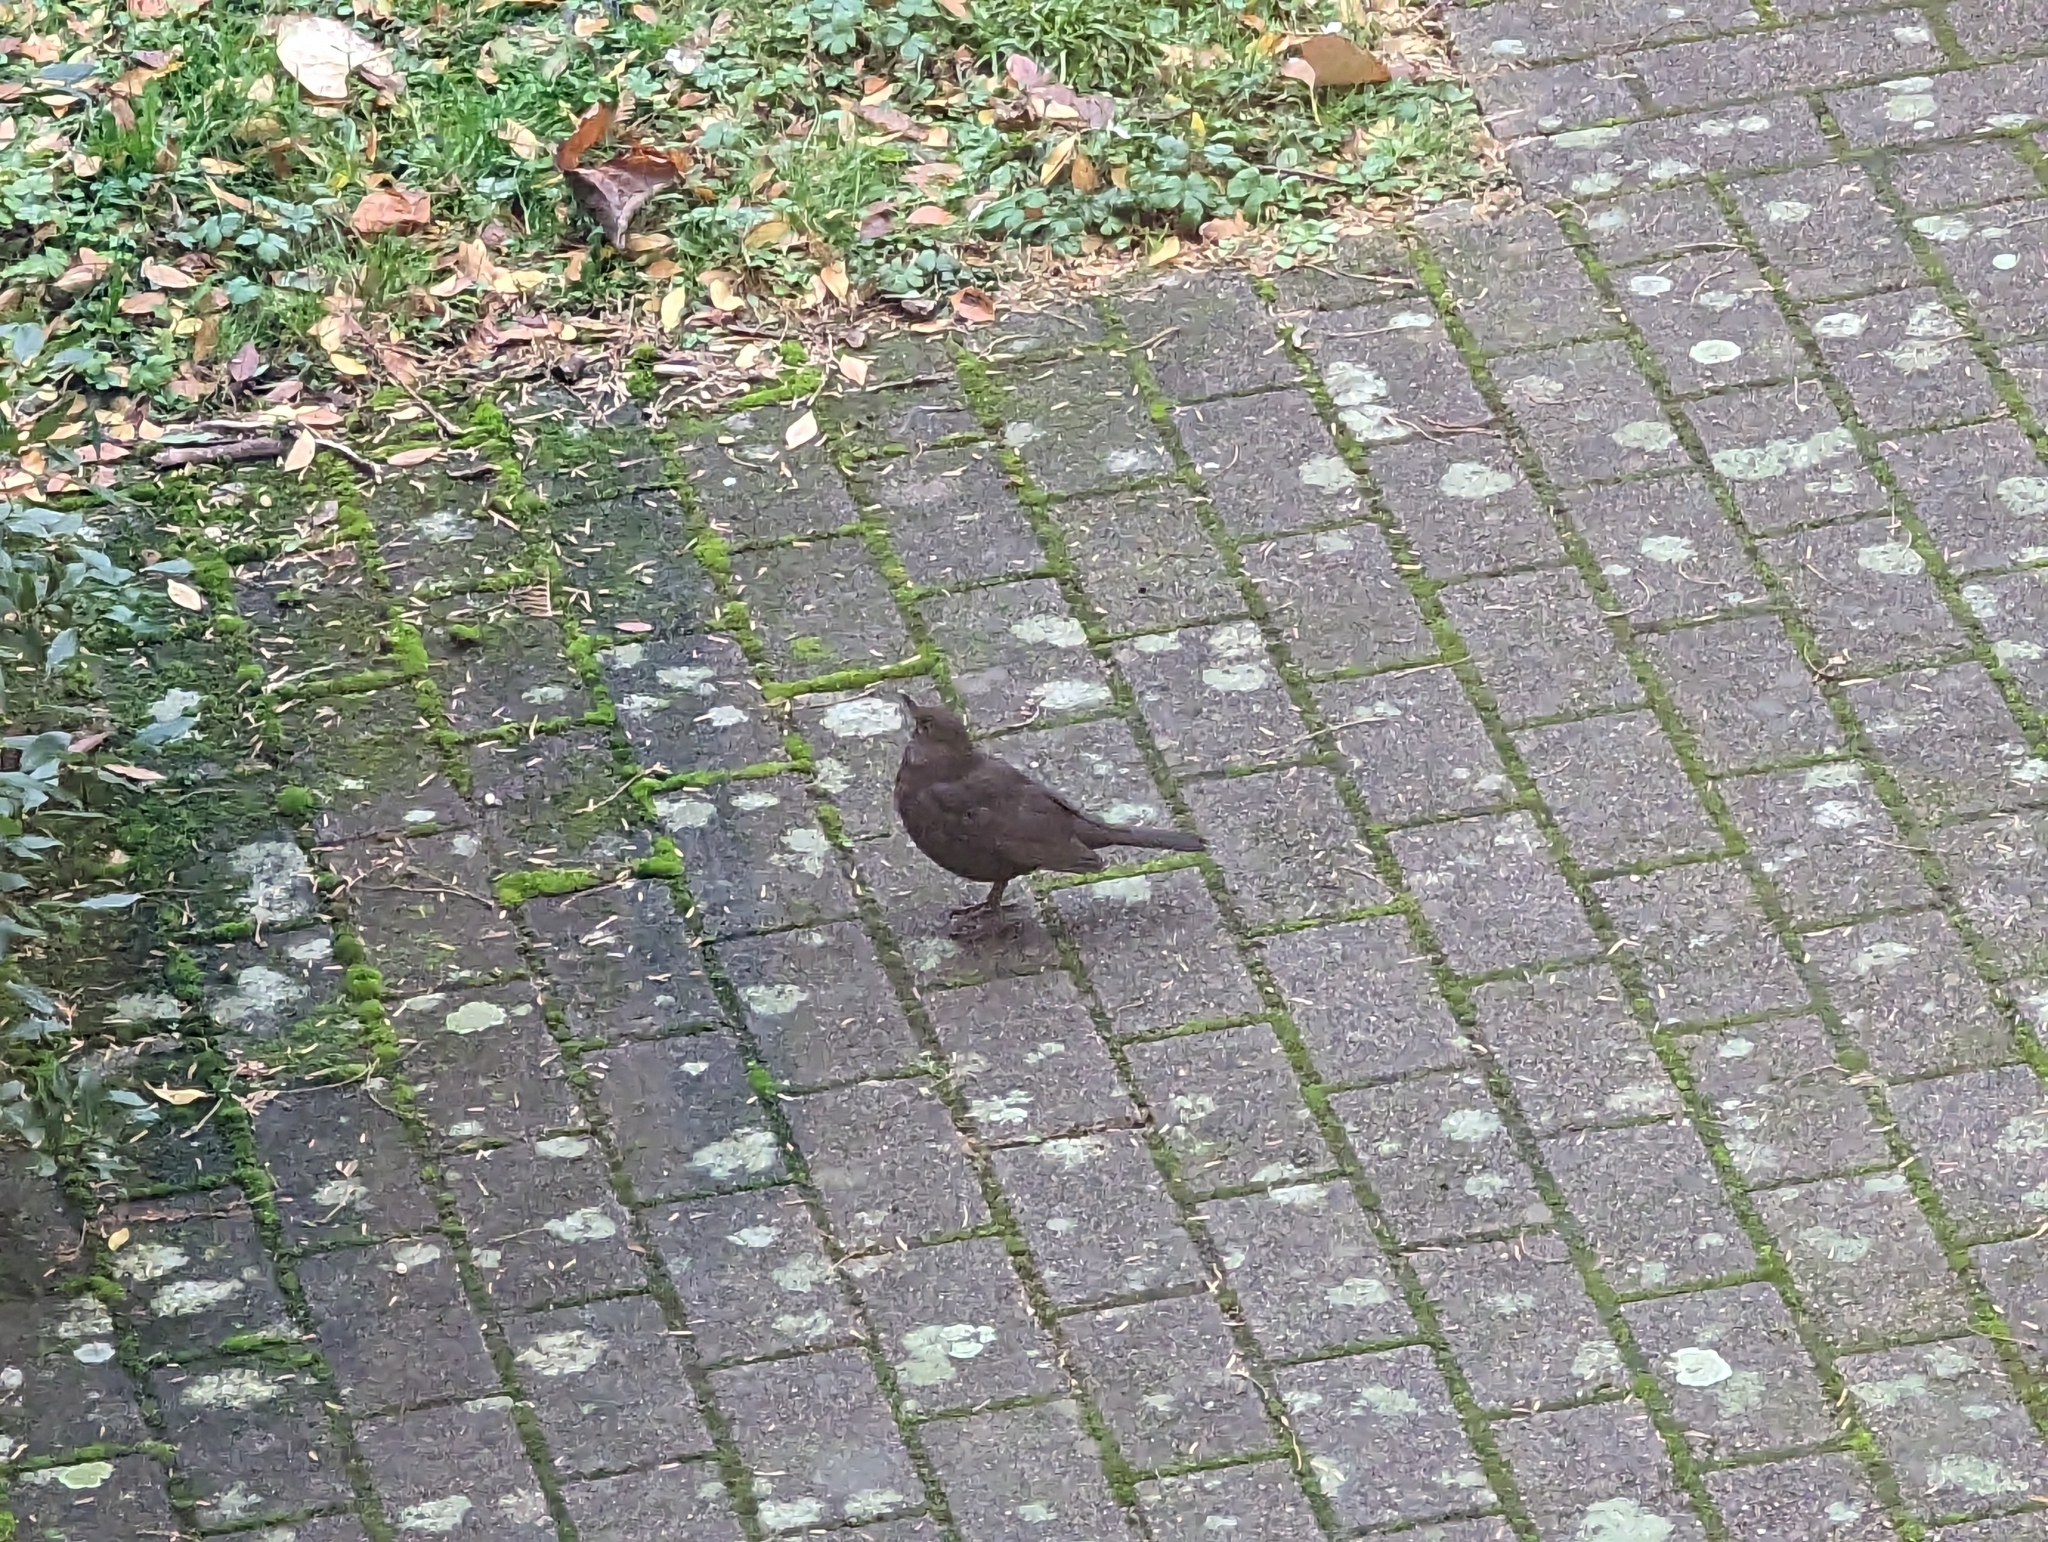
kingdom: Animalia
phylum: Chordata
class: Aves
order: Passeriformes
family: Turdidae
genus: Turdus
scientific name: Turdus merula
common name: Common blackbird
